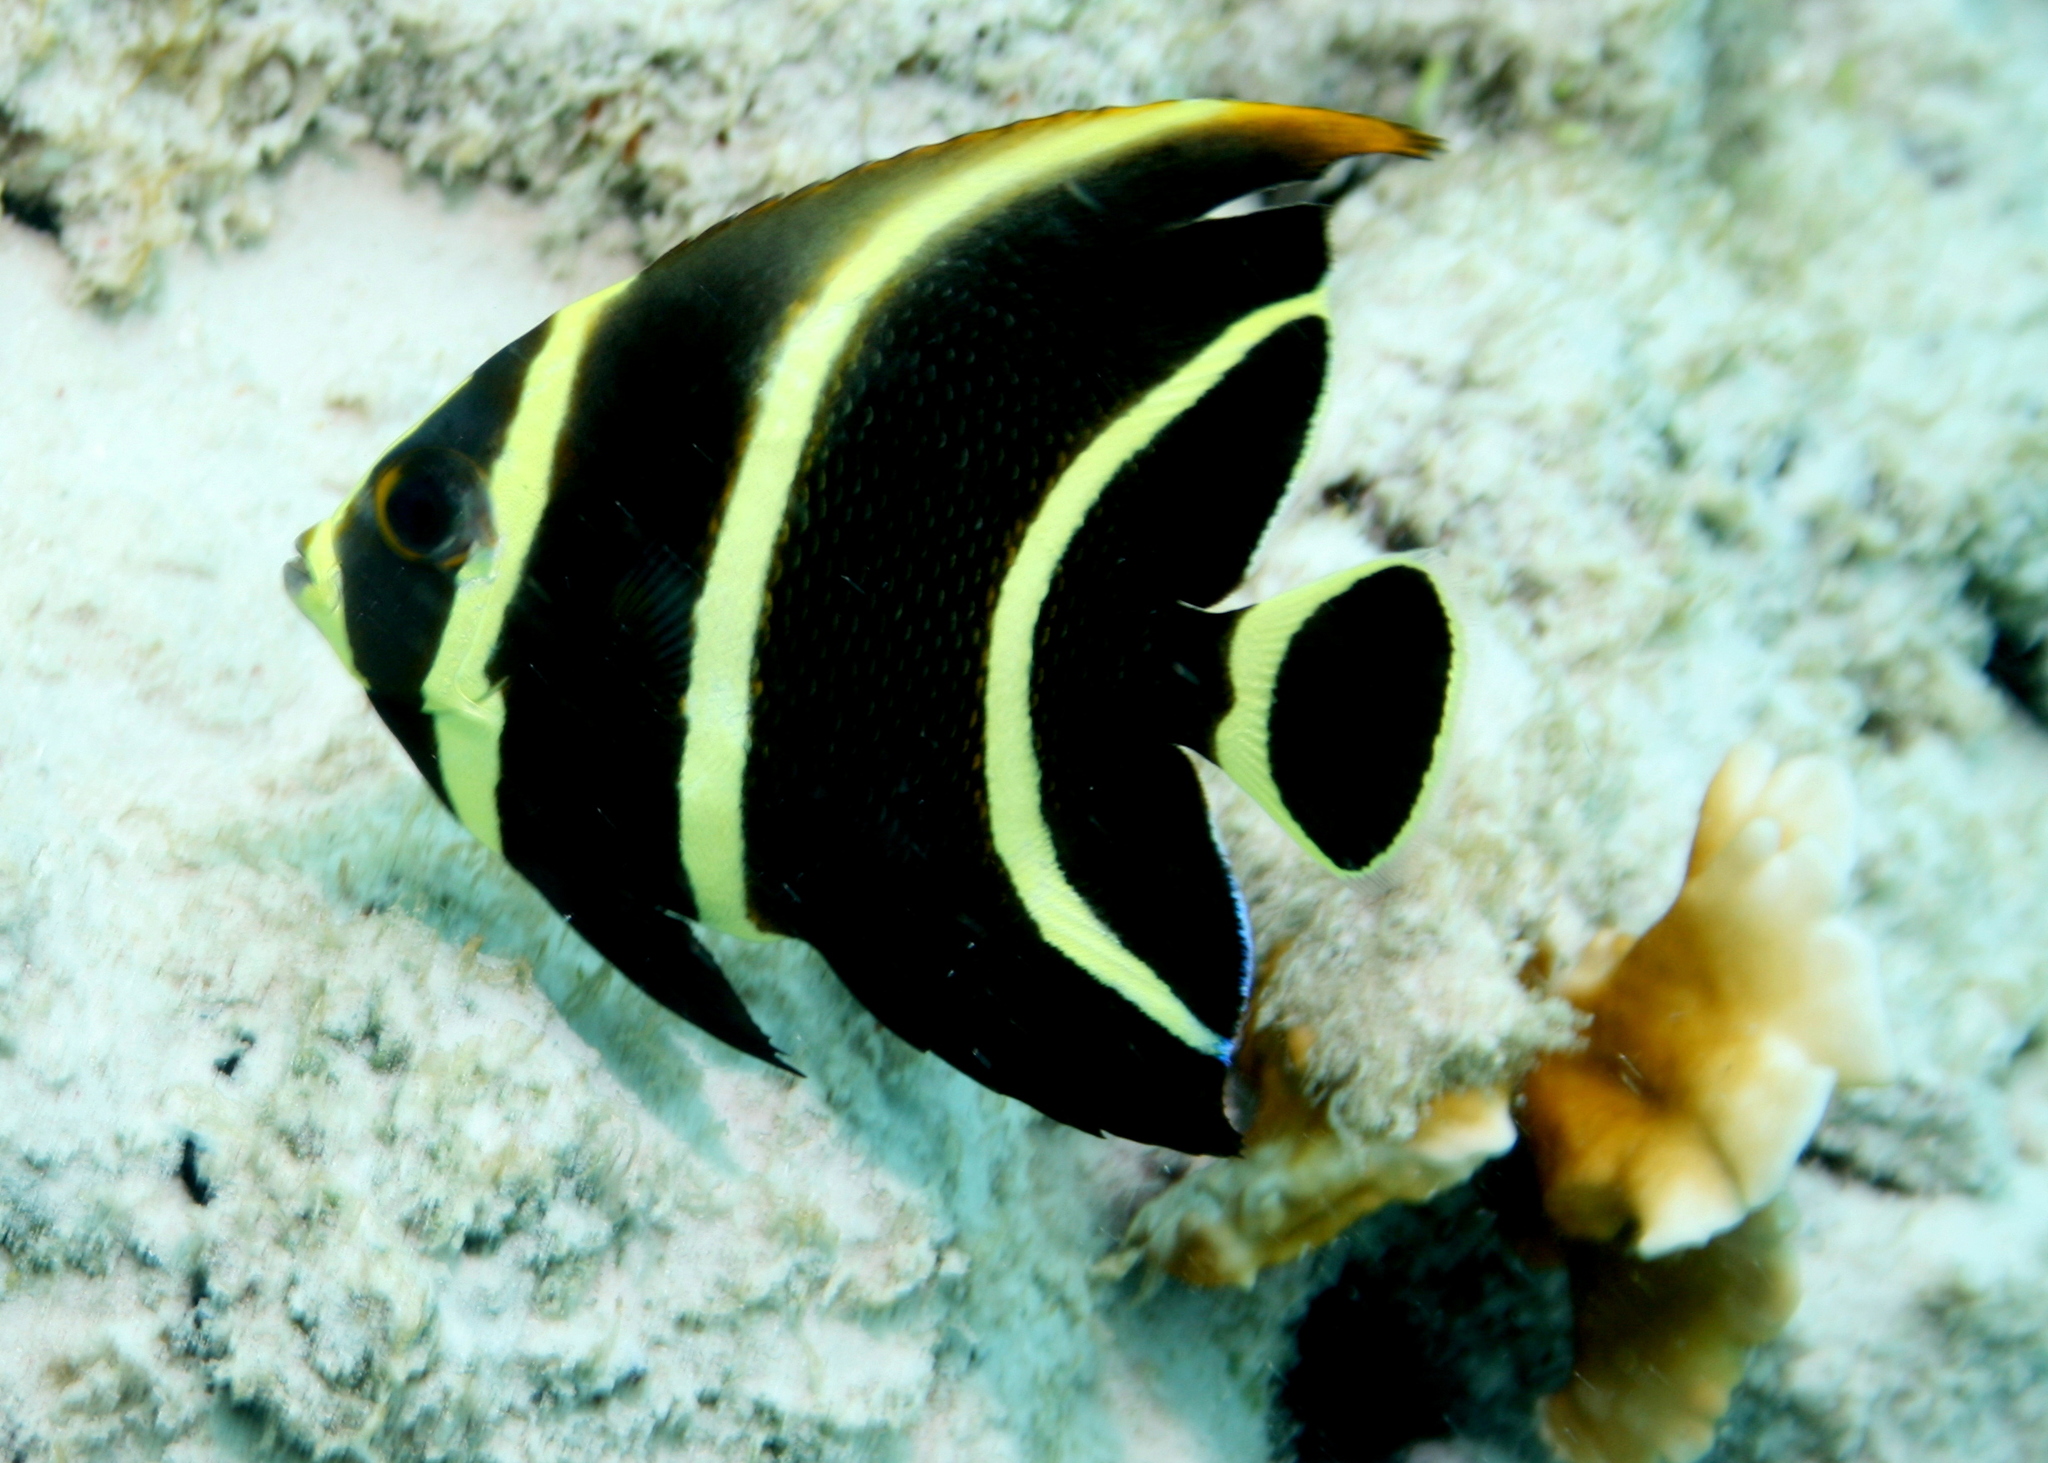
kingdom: Animalia
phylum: Chordata
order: Perciformes
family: Pomacanthidae
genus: Pomacanthus
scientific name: Pomacanthus paru
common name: French angelfish
